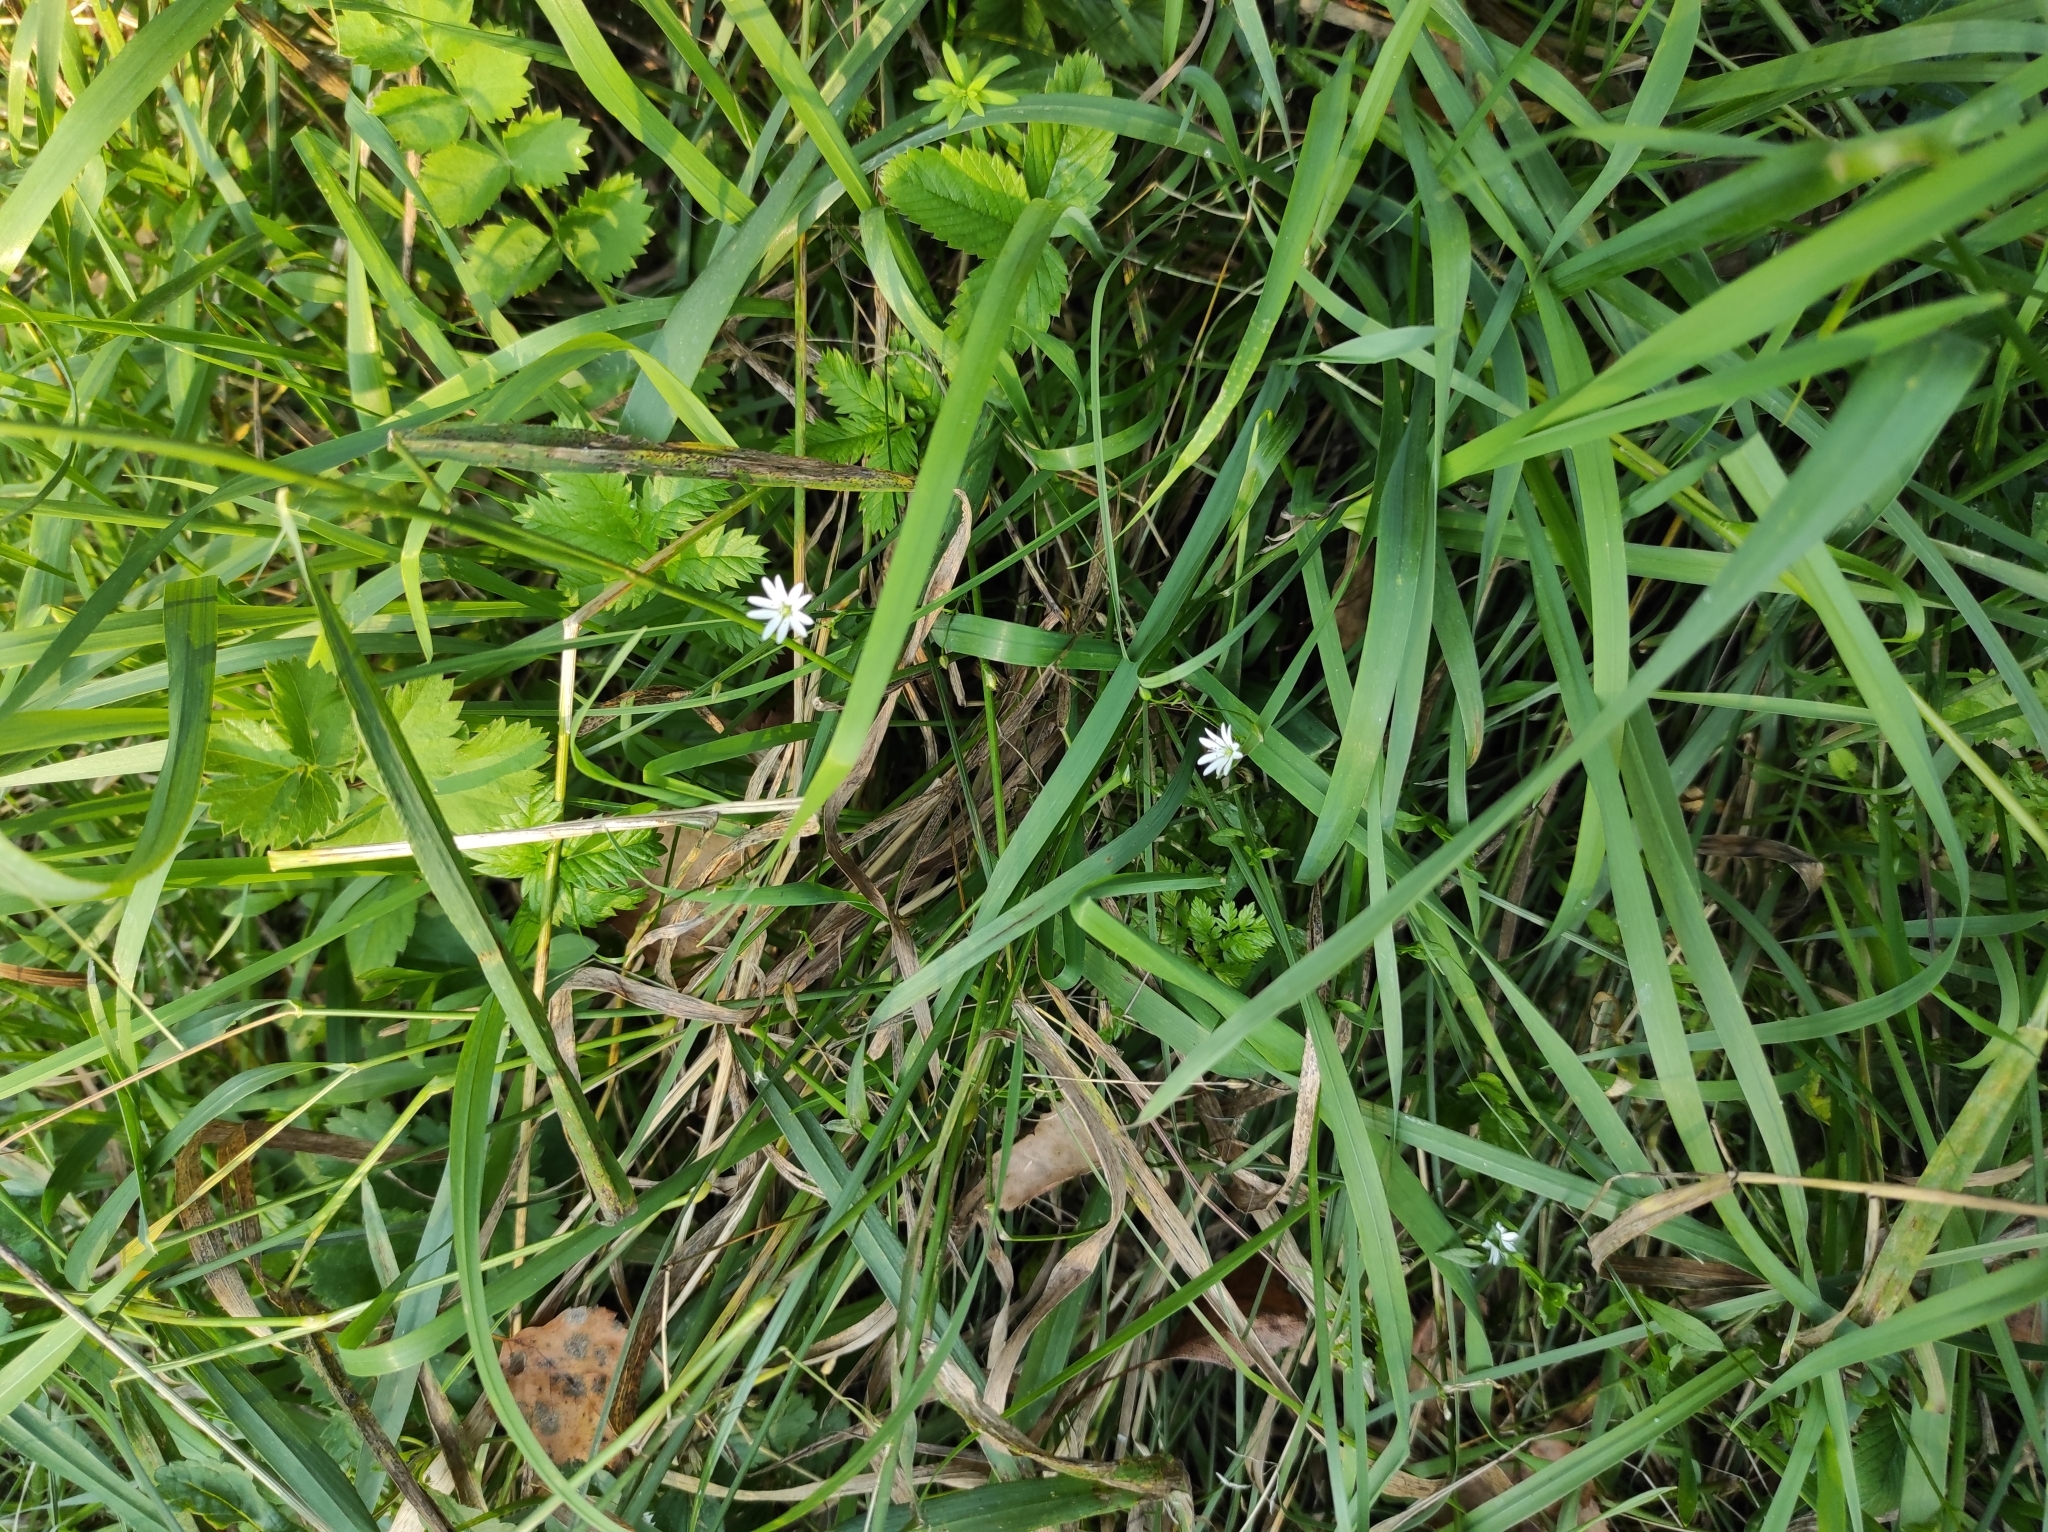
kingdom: Plantae
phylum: Tracheophyta
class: Magnoliopsida
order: Caryophyllales
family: Caryophyllaceae
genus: Stellaria
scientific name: Stellaria graminea
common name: Grass-like starwort
